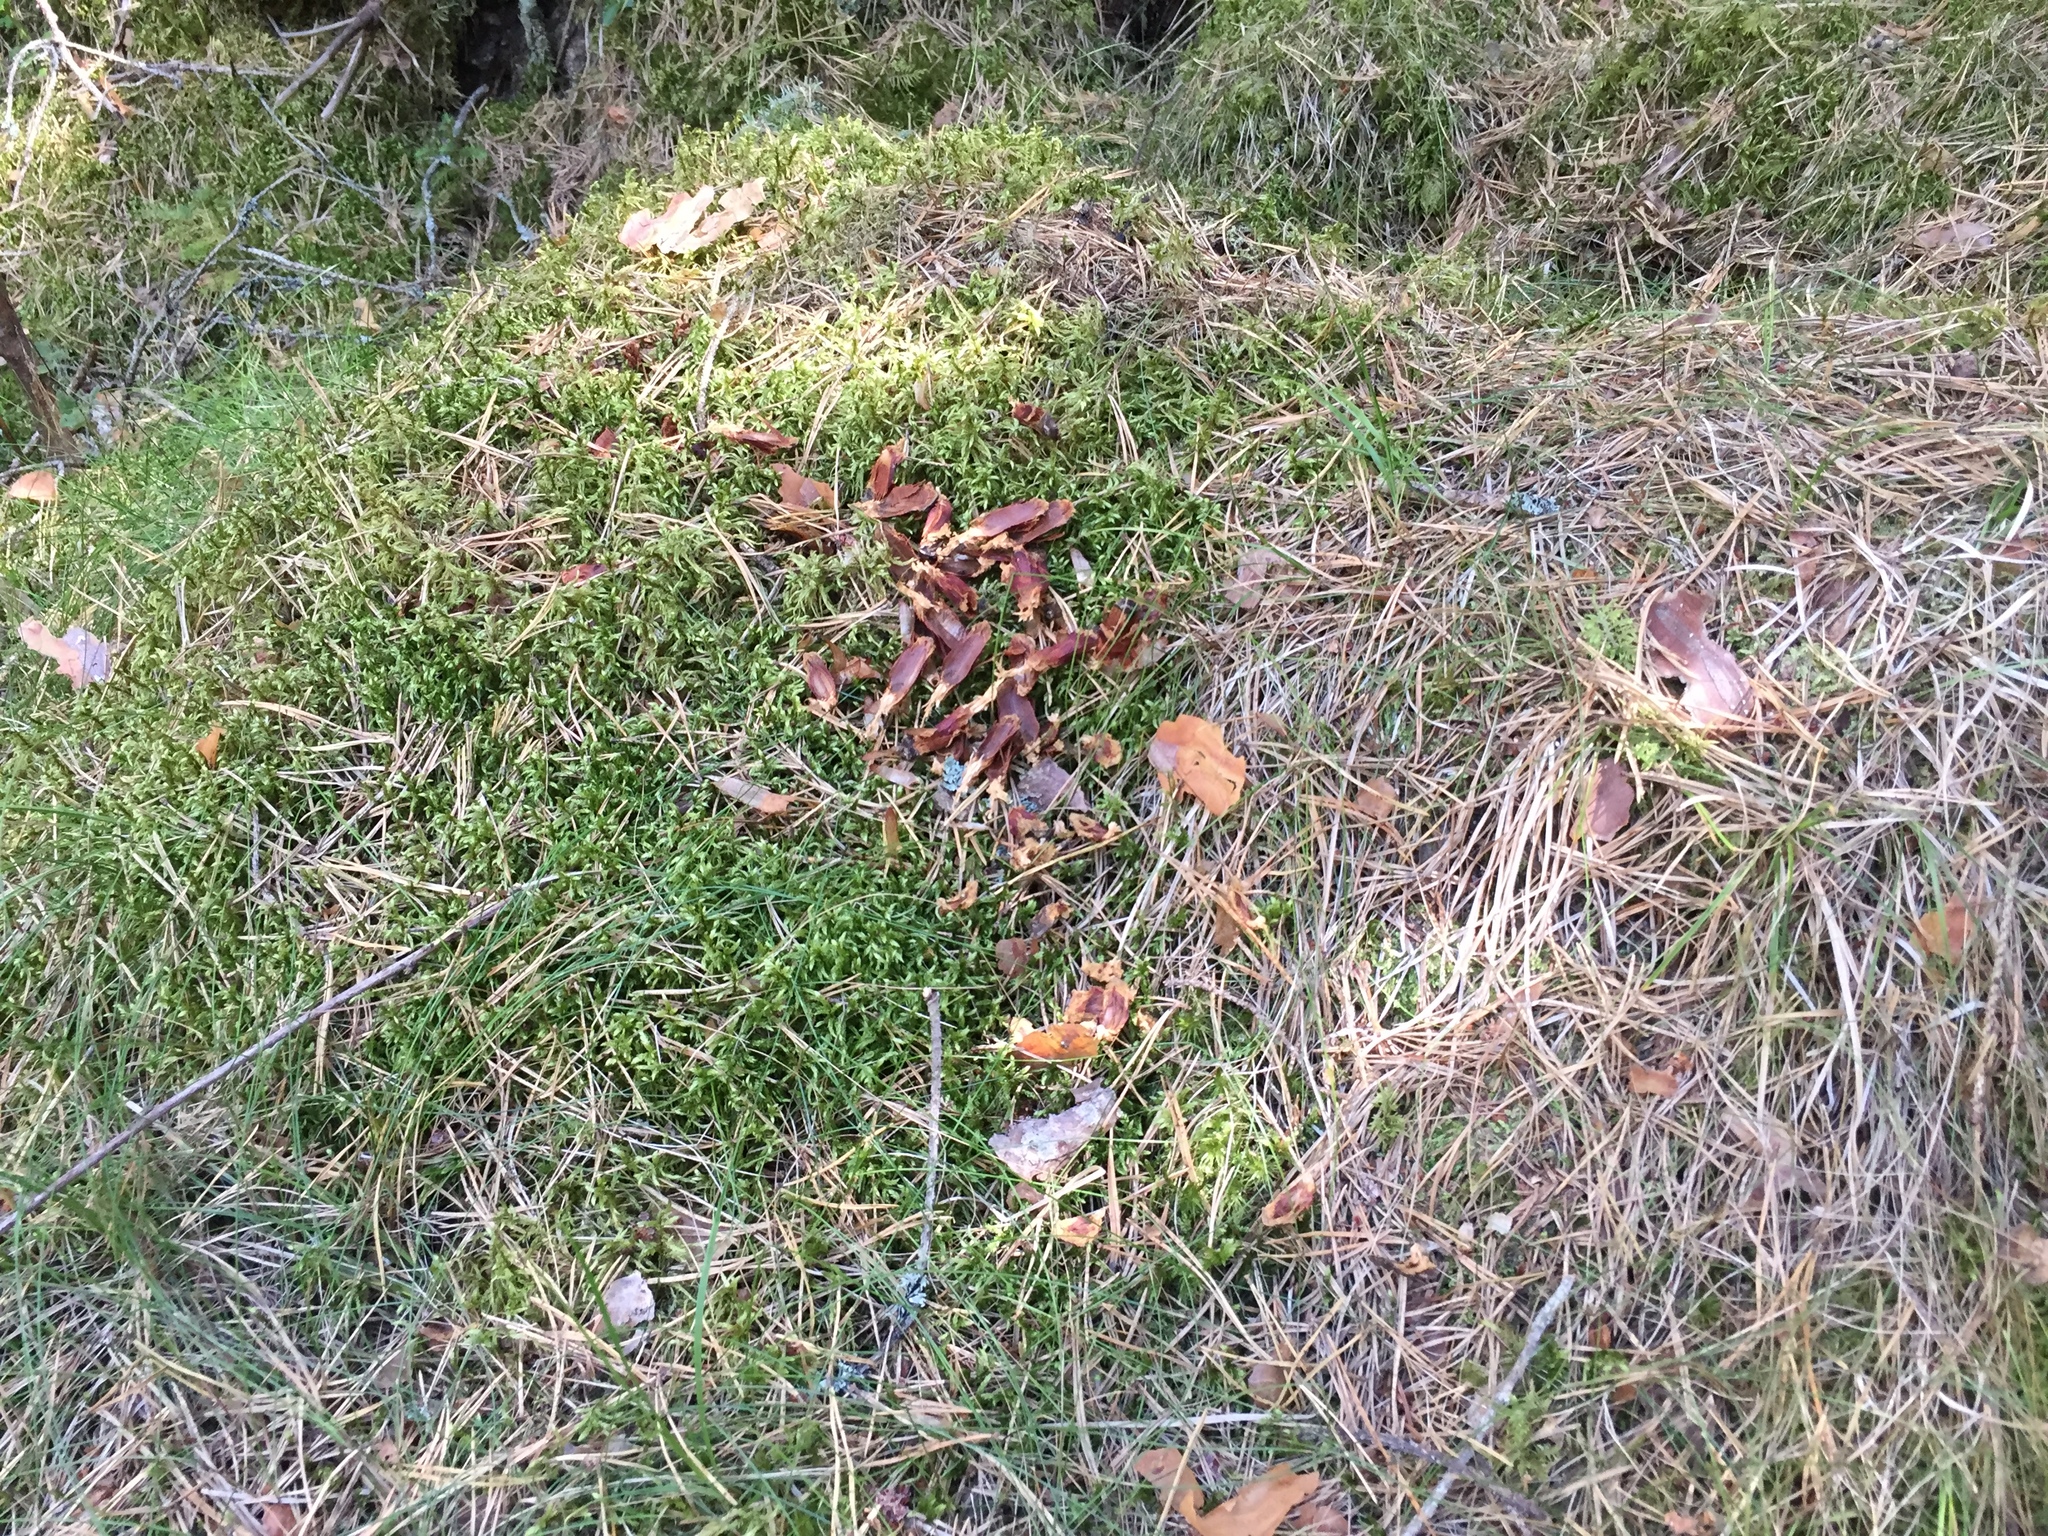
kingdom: Animalia
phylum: Chordata
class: Mammalia
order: Rodentia
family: Sciuridae
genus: Sciurus
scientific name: Sciurus vulgaris
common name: Eurasian red squirrel
